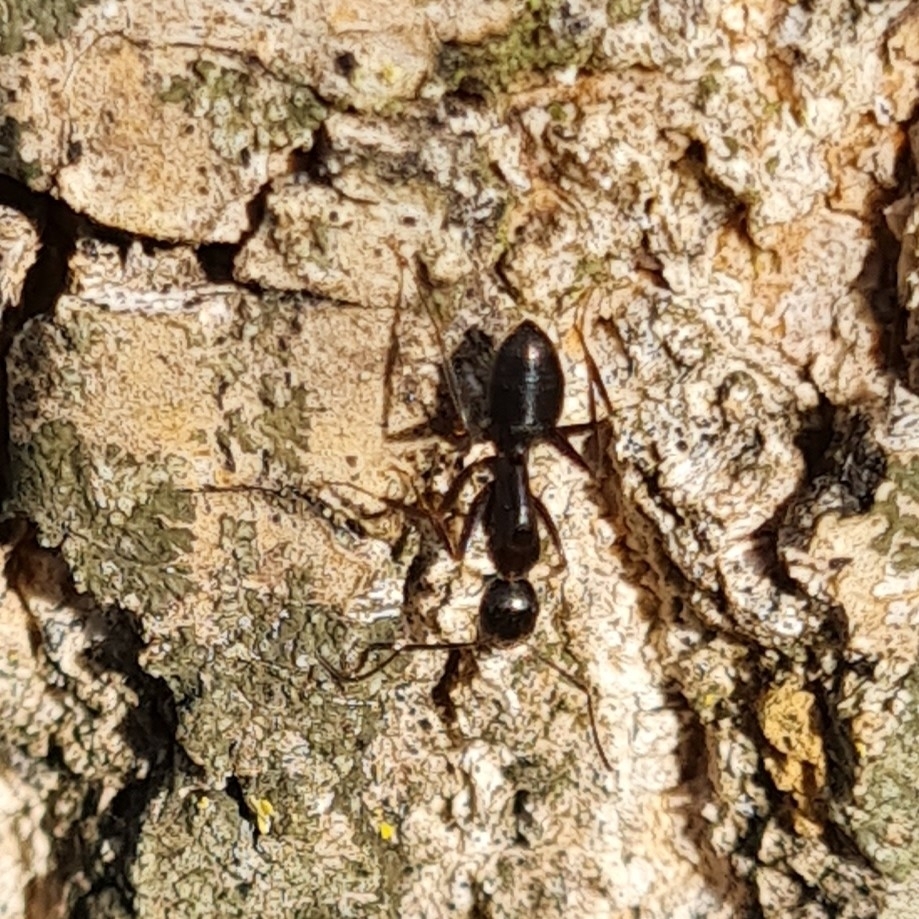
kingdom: Animalia
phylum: Arthropoda
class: Insecta
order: Hymenoptera
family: Formicidae
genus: Camponotus
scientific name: Camponotus aethiops
